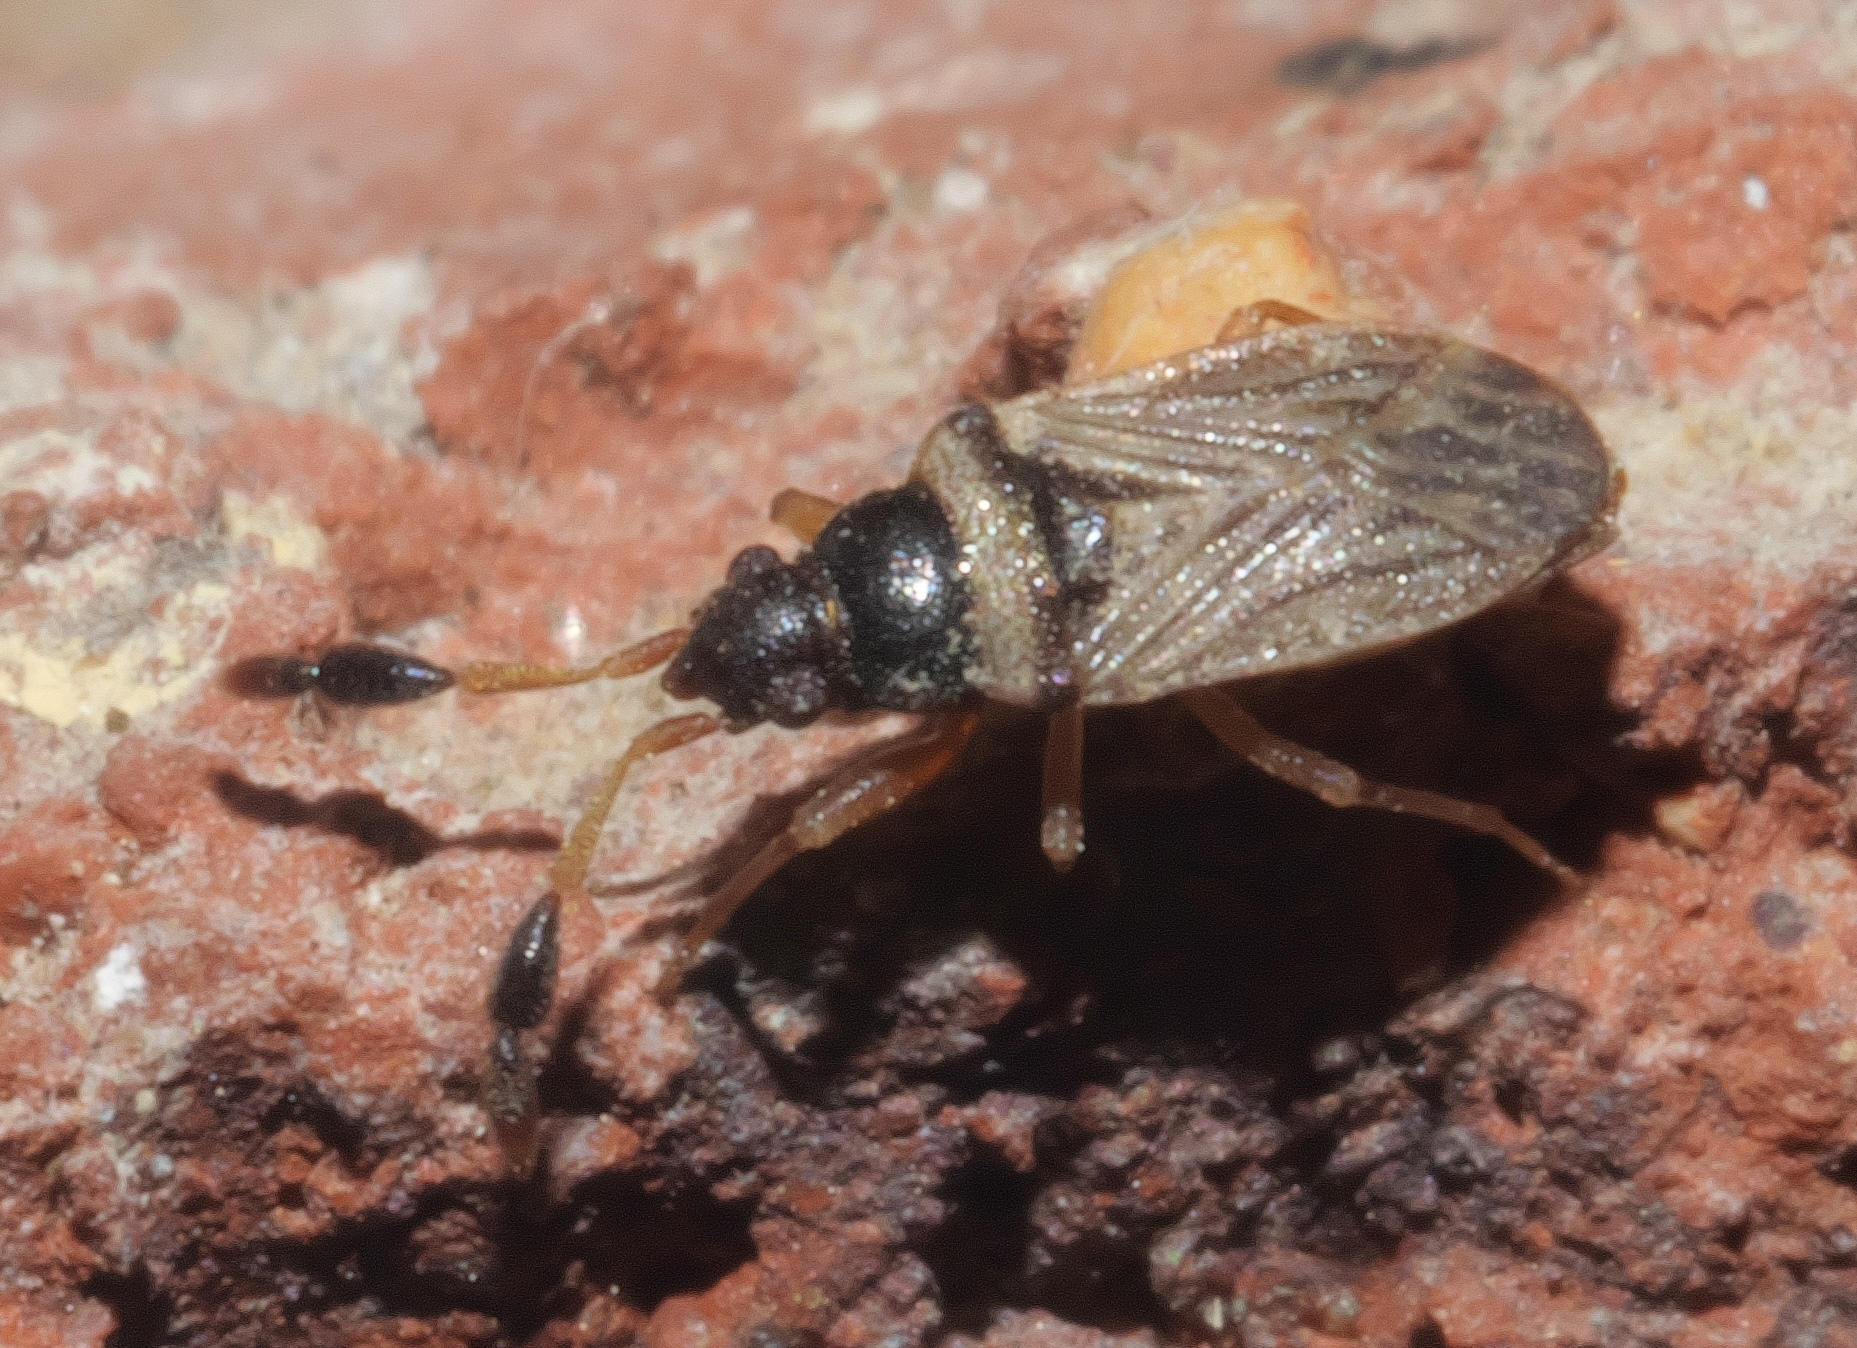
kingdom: Animalia
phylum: Arthropoda
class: Insecta
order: Hemiptera
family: Rhyparochromidae
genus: Ptochiomera
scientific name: Ptochiomera nodosa
